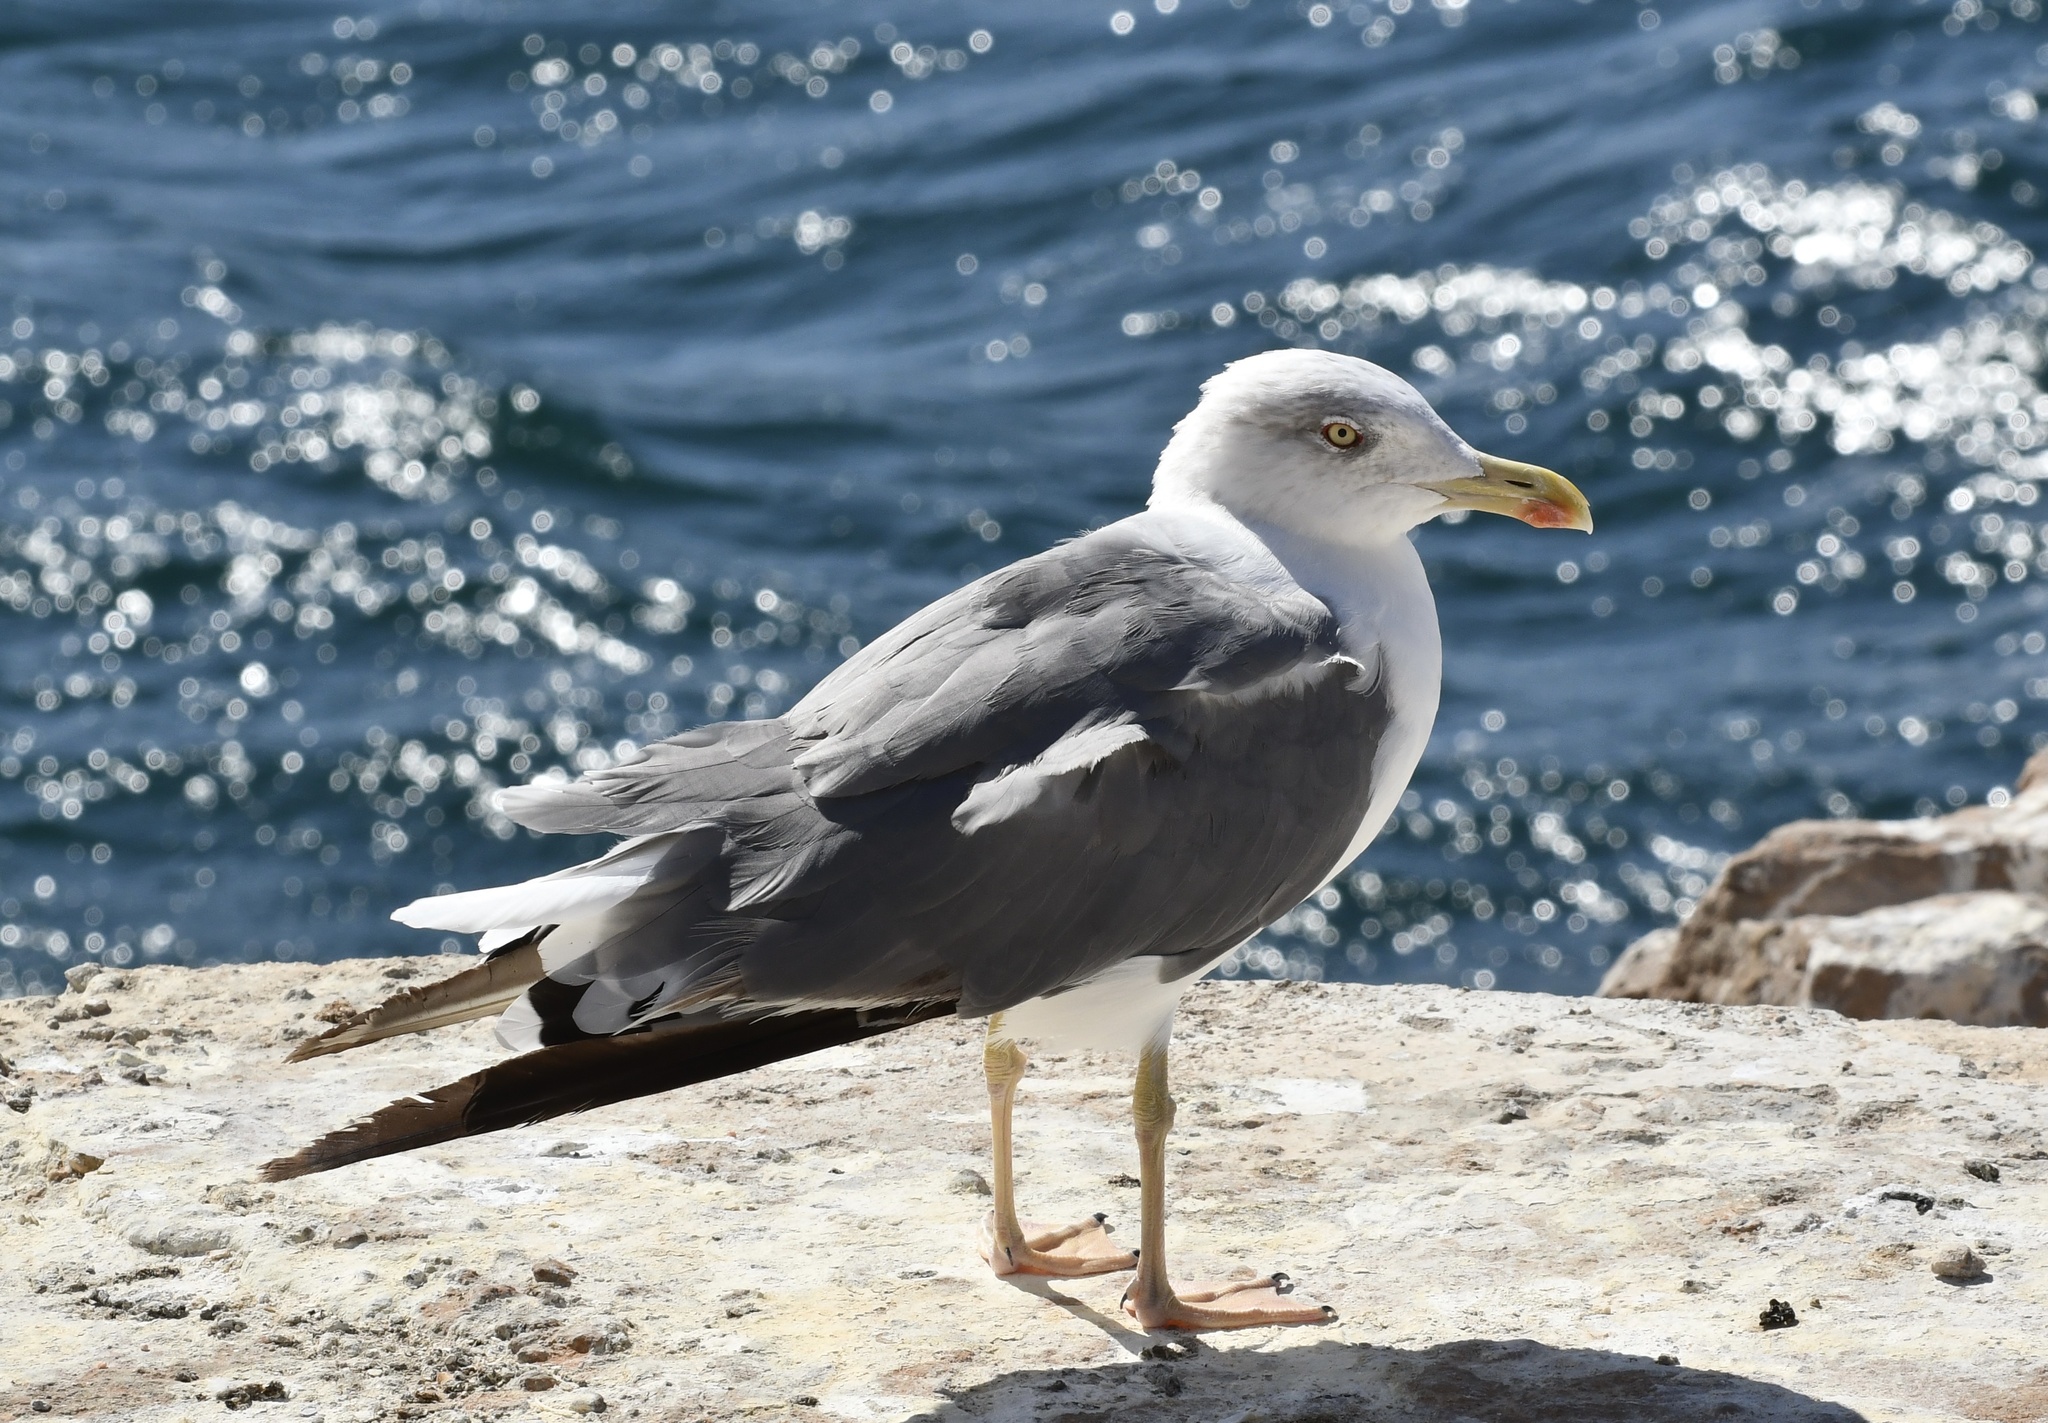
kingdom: Animalia
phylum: Chordata
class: Aves
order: Charadriiformes
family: Laridae
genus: Larus
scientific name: Larus michahellis
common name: Yellow-legged gull
